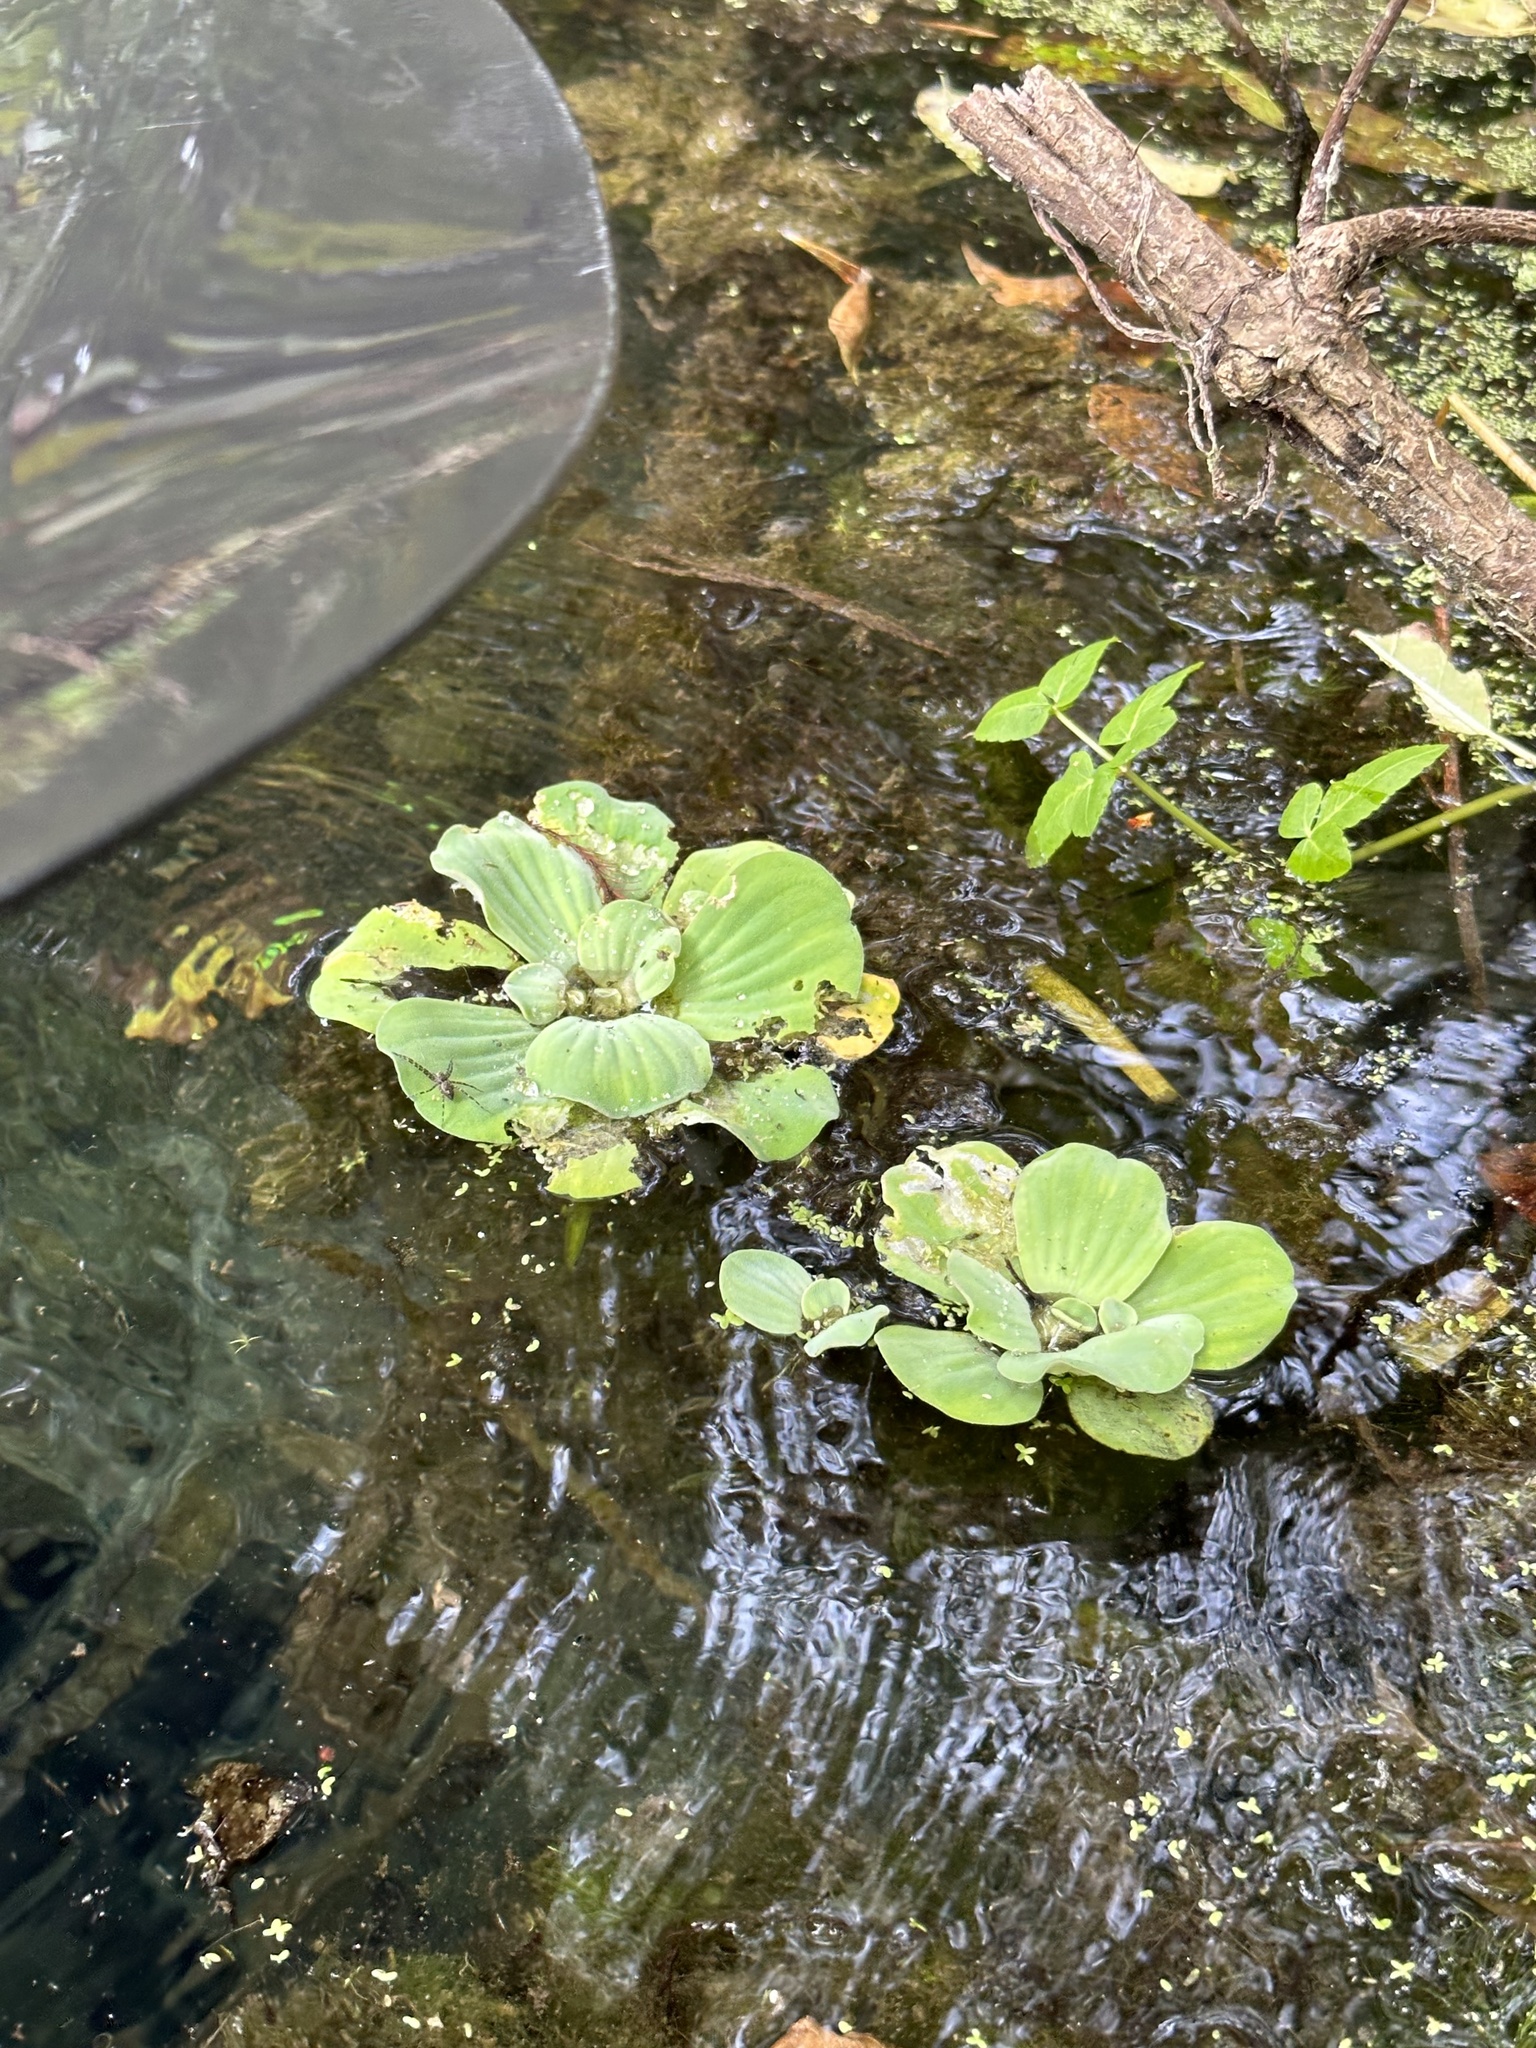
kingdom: Plantae
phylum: Tracheophyta
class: Liliopsida
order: Alismatales
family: Araceae
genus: Pistia
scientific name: Pistia stratiotes
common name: Water lettuce
